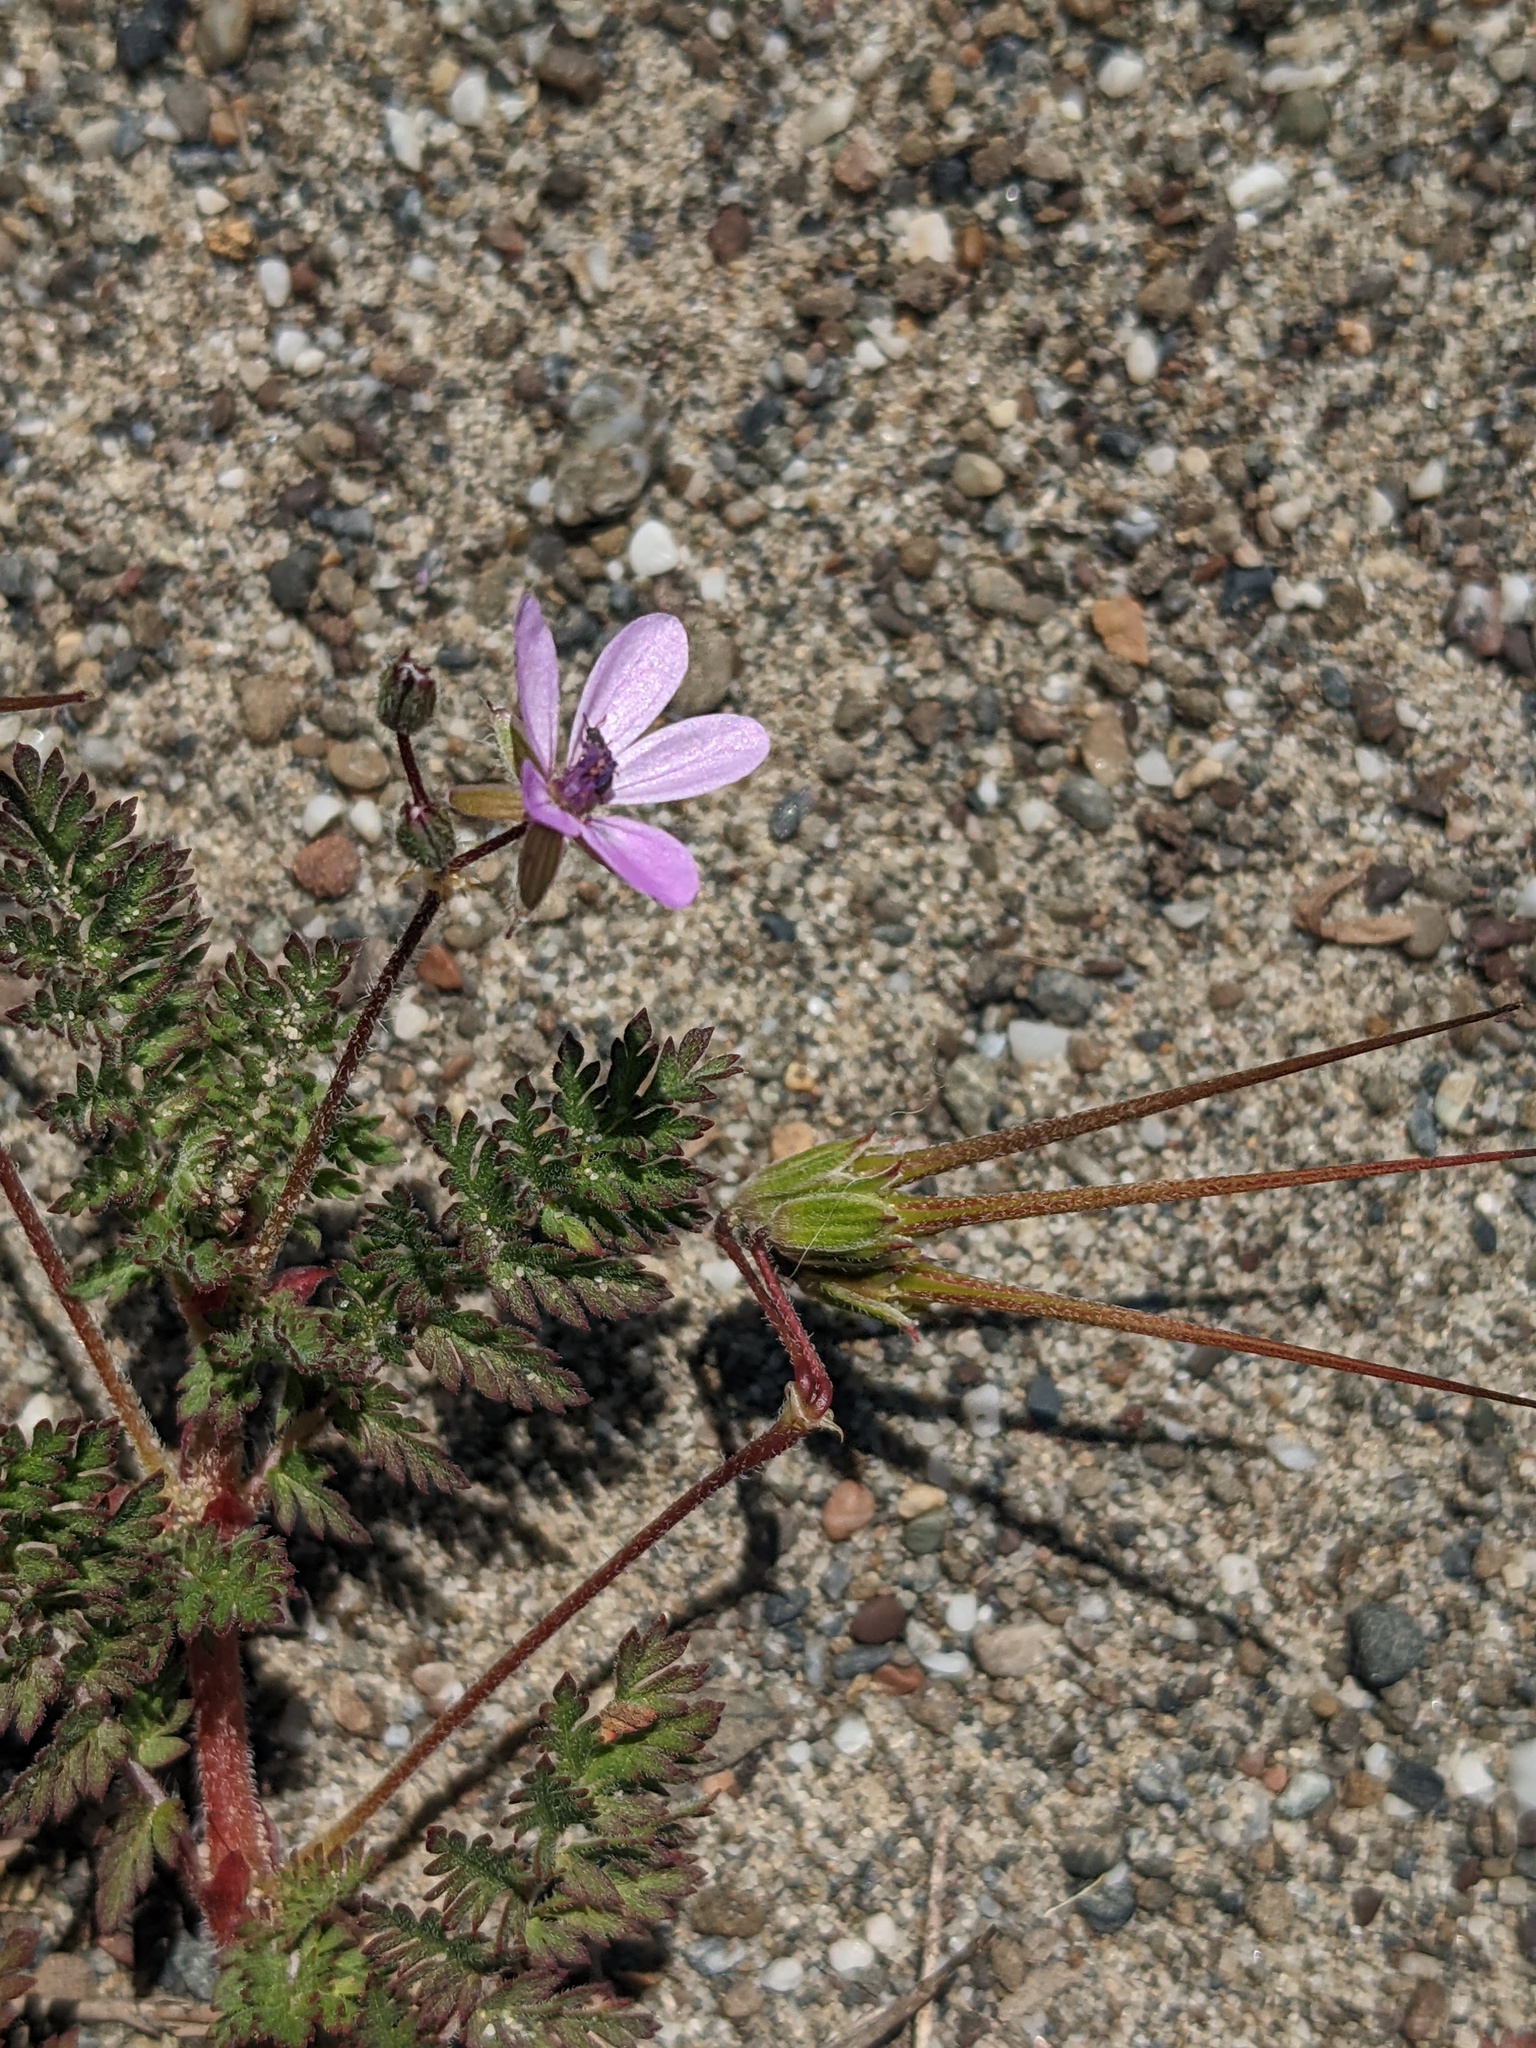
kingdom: Plantae
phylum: Tracheophyta
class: Magnoliopsida
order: Geraniales
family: Geraniaceae
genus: Erodium
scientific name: Erodium cicutarium
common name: Common stork's-bill
